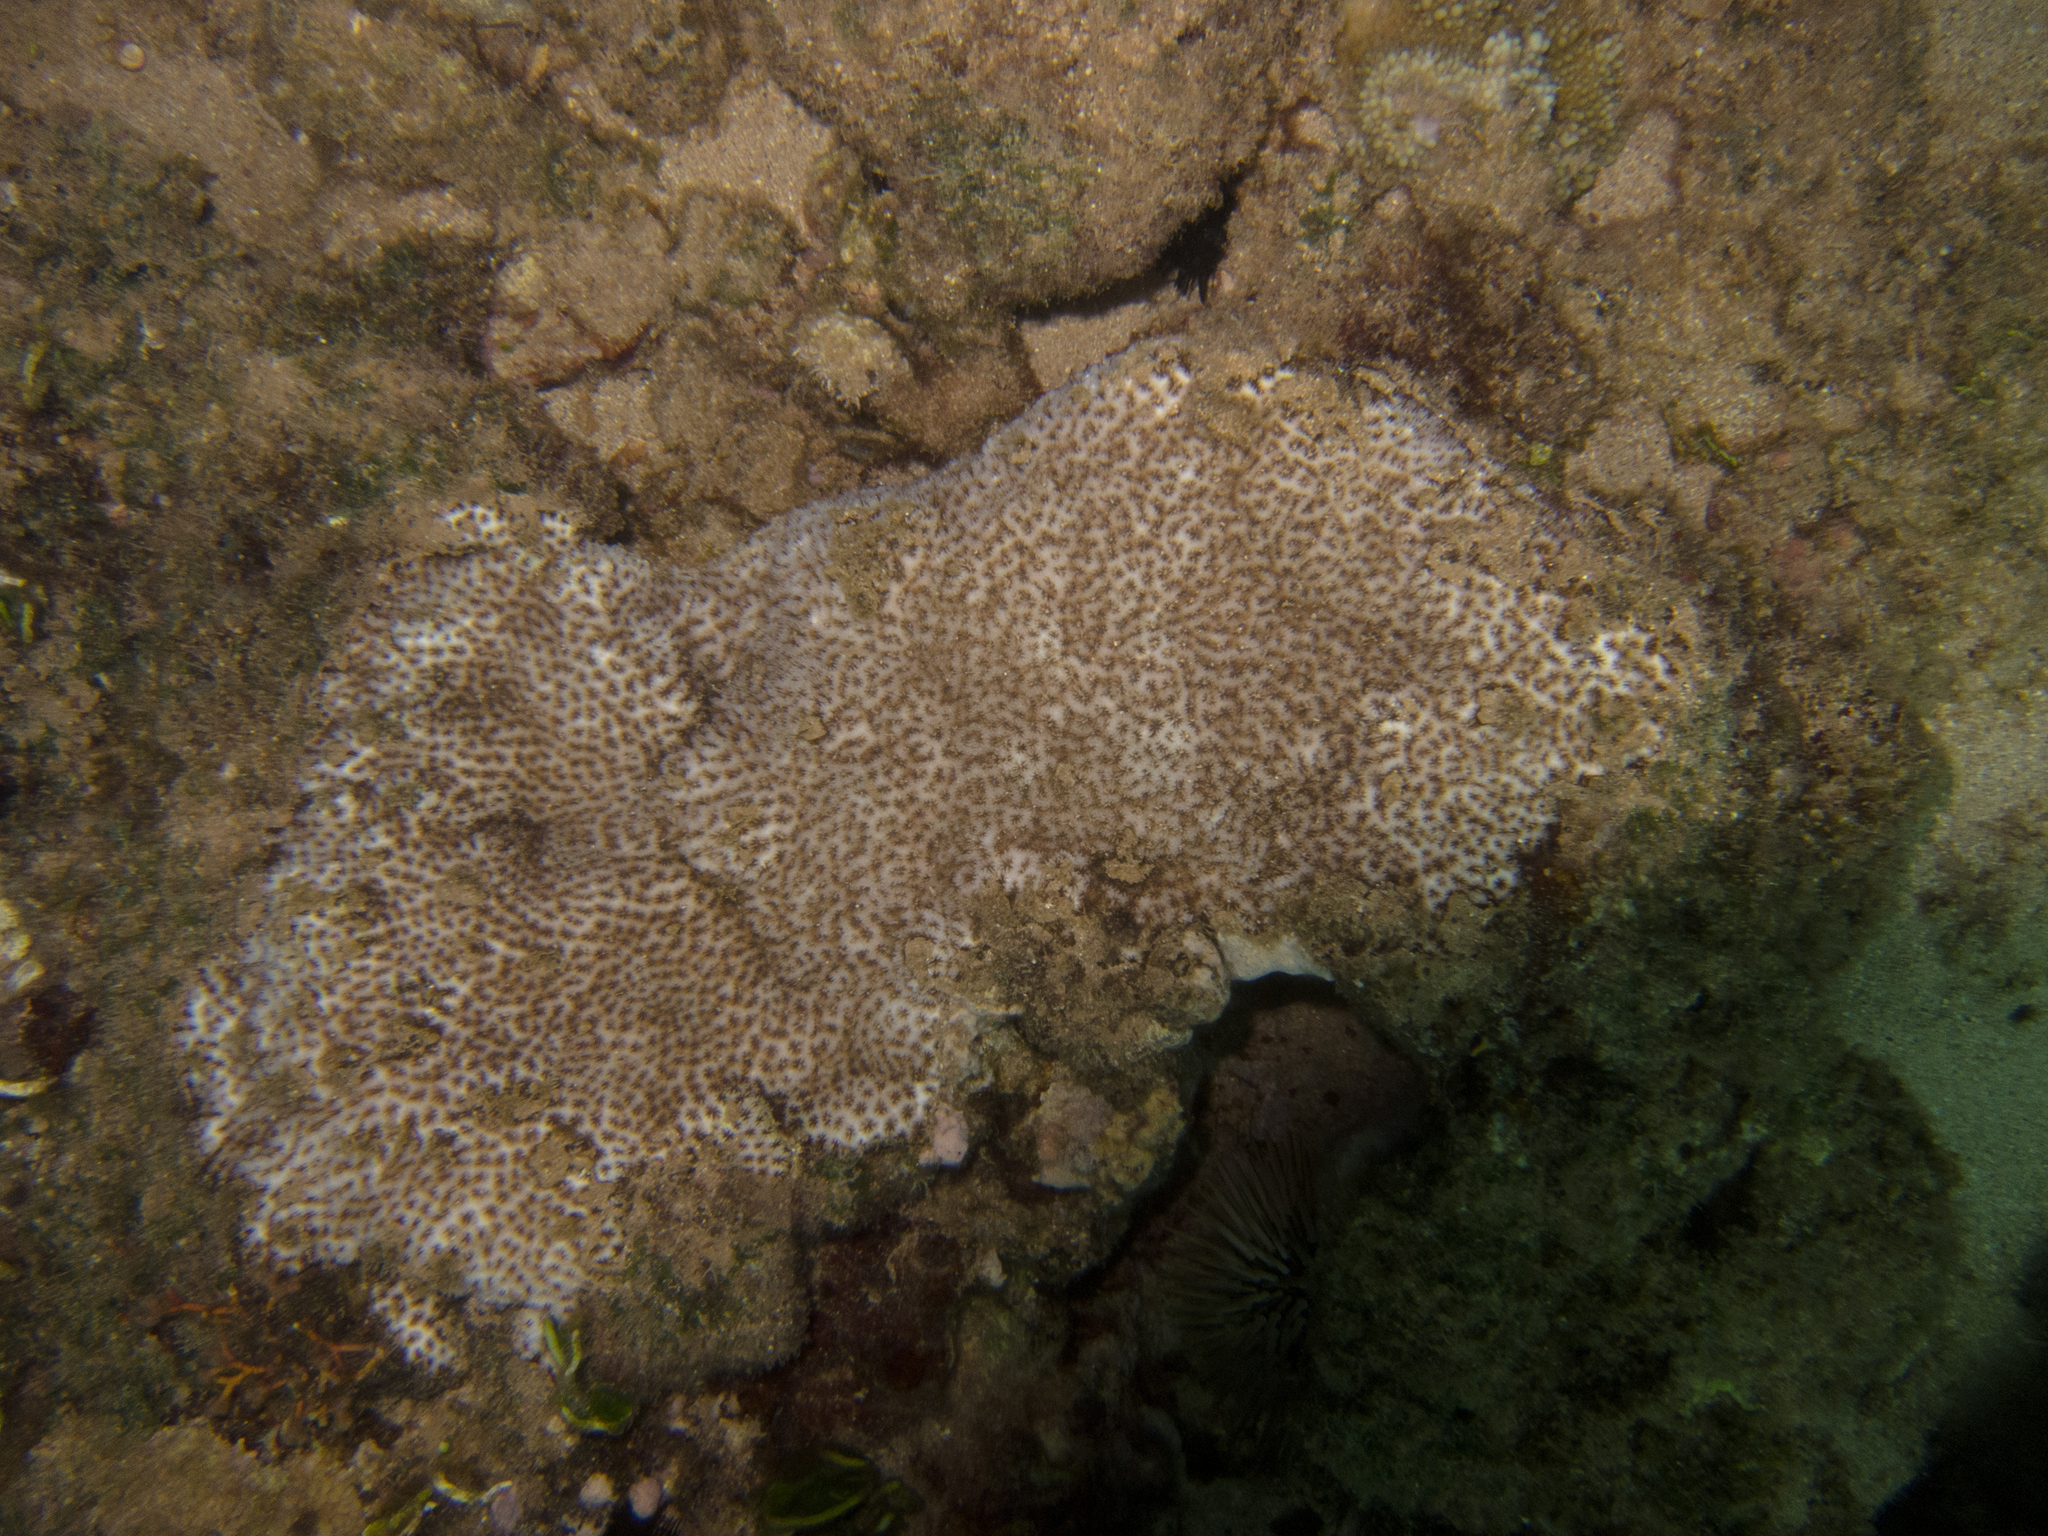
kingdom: Animalia
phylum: Cnidaria
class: Anthozoa
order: Scleractinia
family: Leptastreidae
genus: Leptastrea
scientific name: Leptastrea bewickensis
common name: Crust coral
